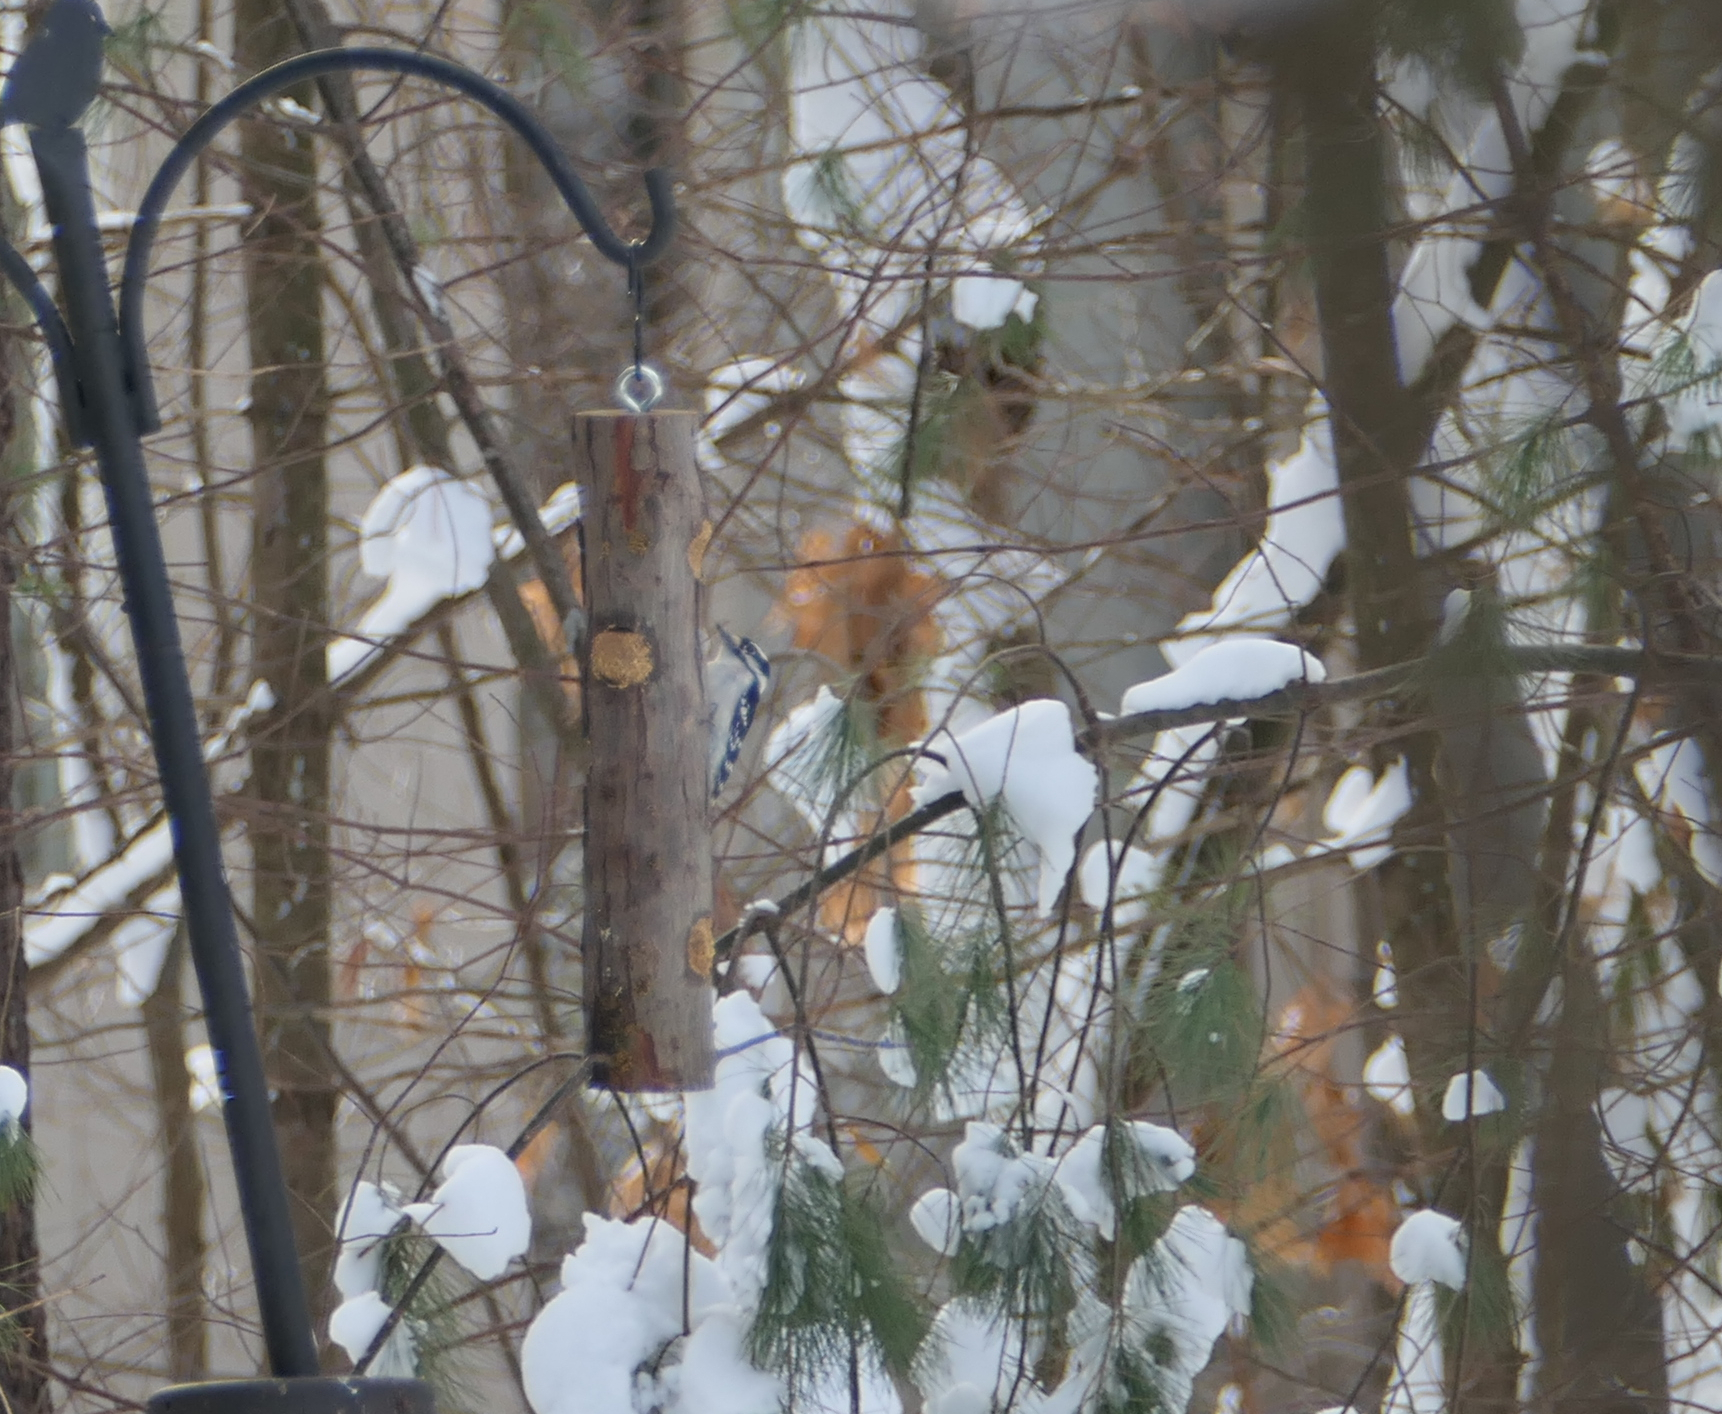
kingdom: Animalia
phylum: Chordata
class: Aves
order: Piciformes
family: Picidae
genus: Dryobates
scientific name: Dryobates pubescens
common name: Downy woodpecker
